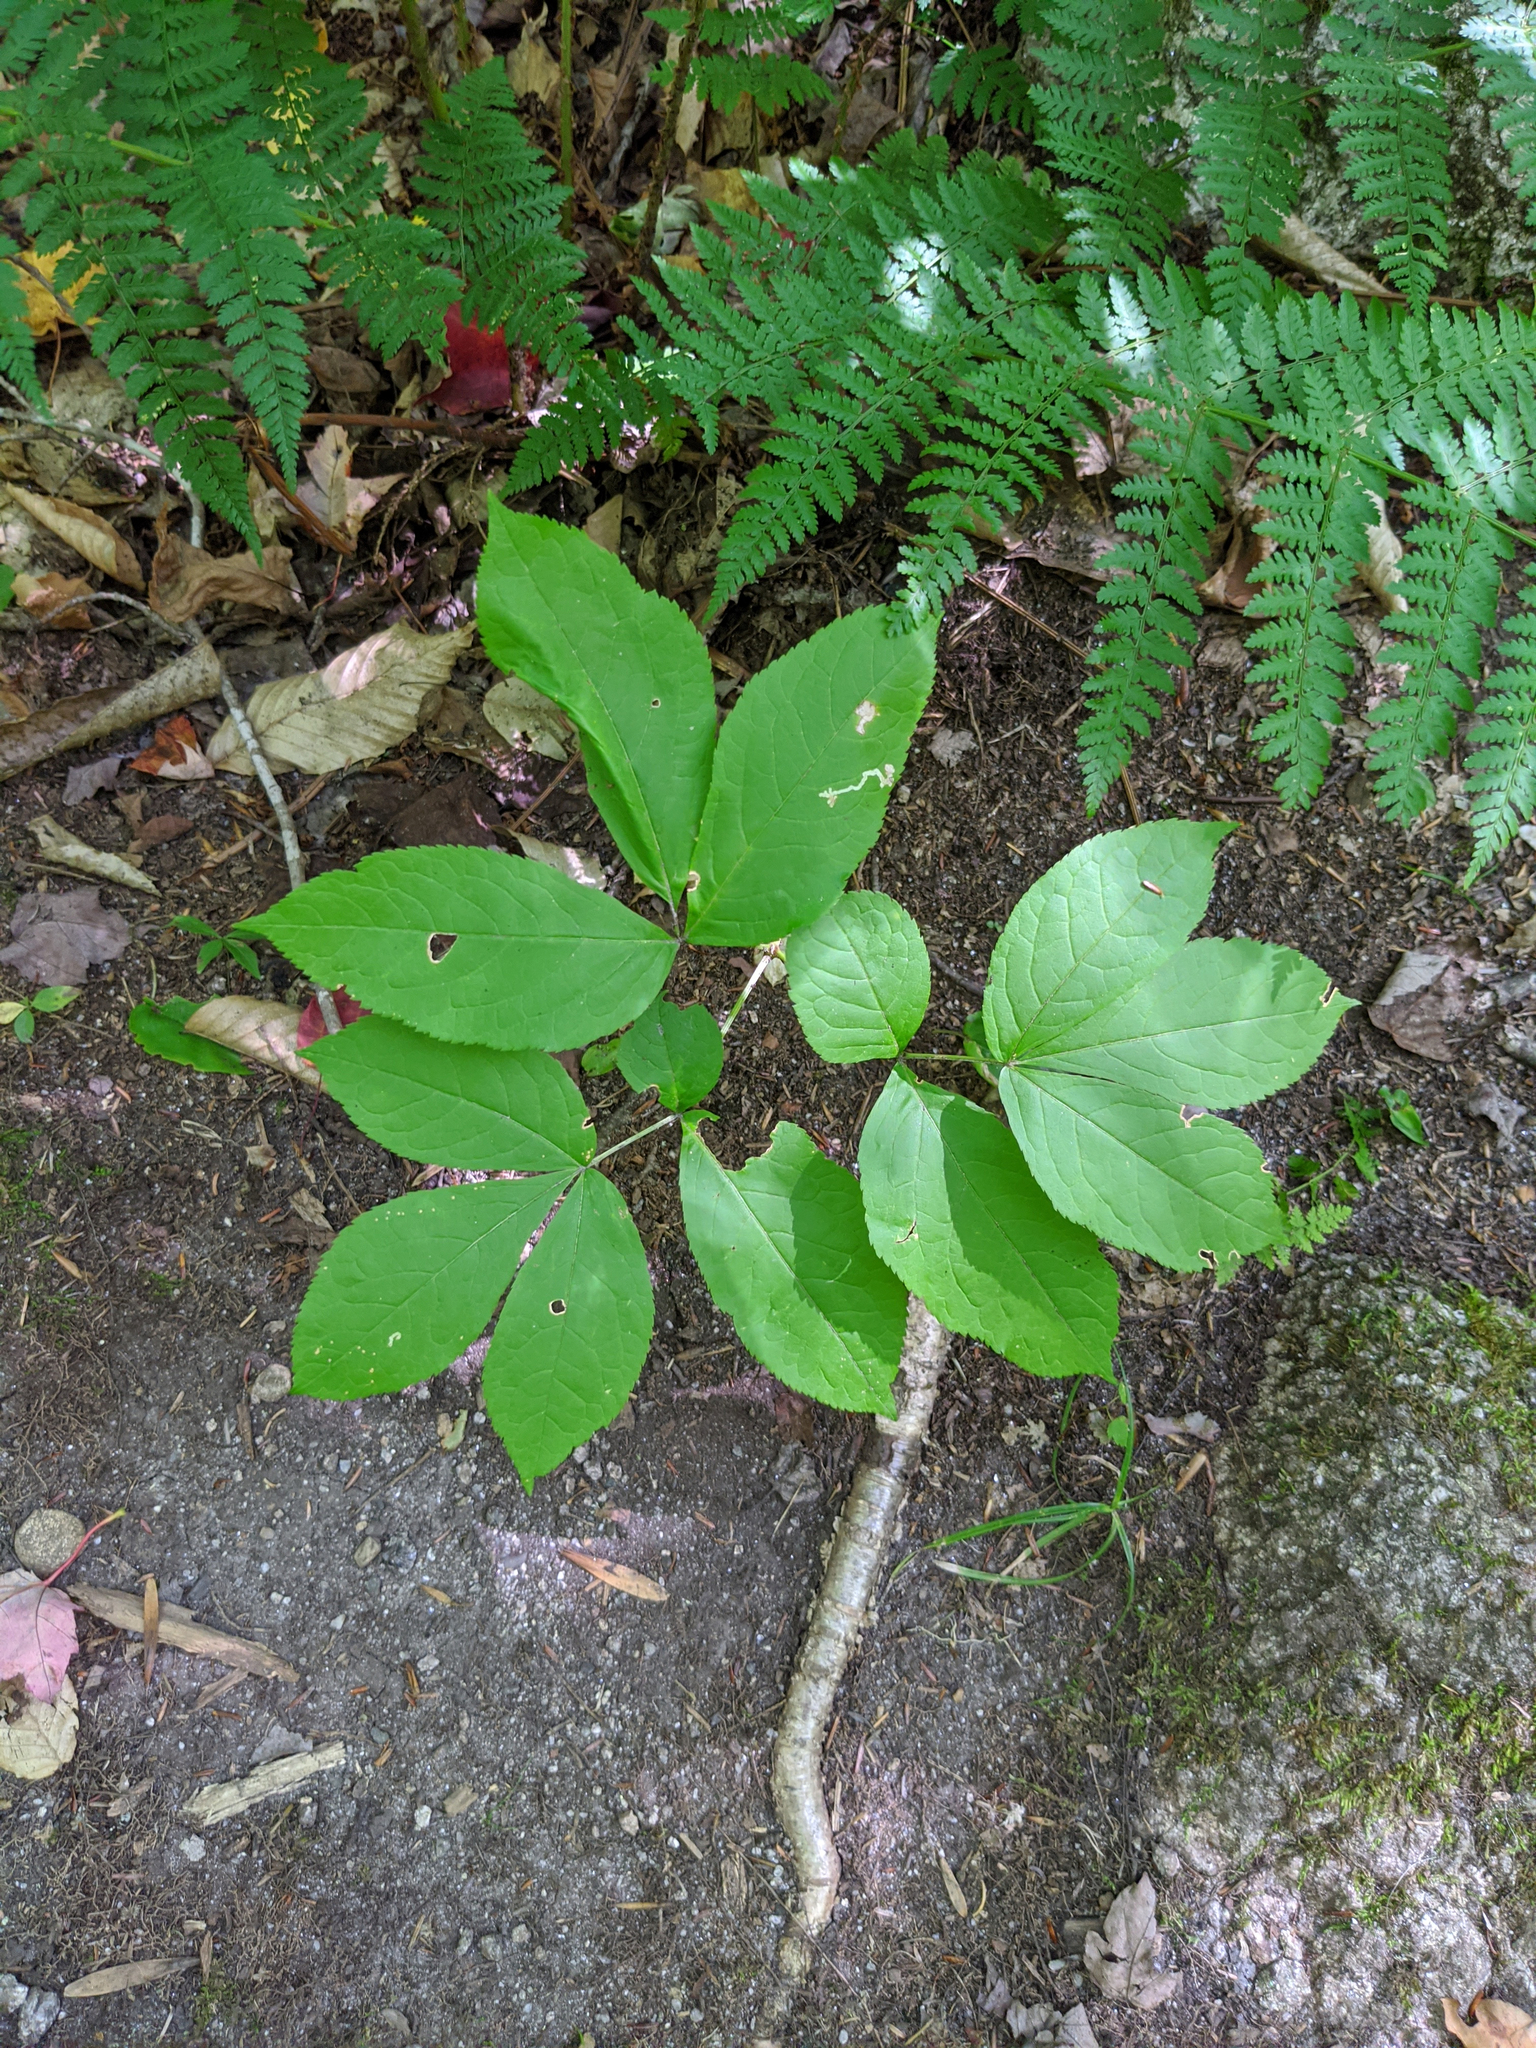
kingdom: Plantae
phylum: Tracheophyta
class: Magnoliopsida
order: Apiales
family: Araliaceae
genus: Aralia
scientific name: Aralia nudicaulis
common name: Wild sarsaparilla
